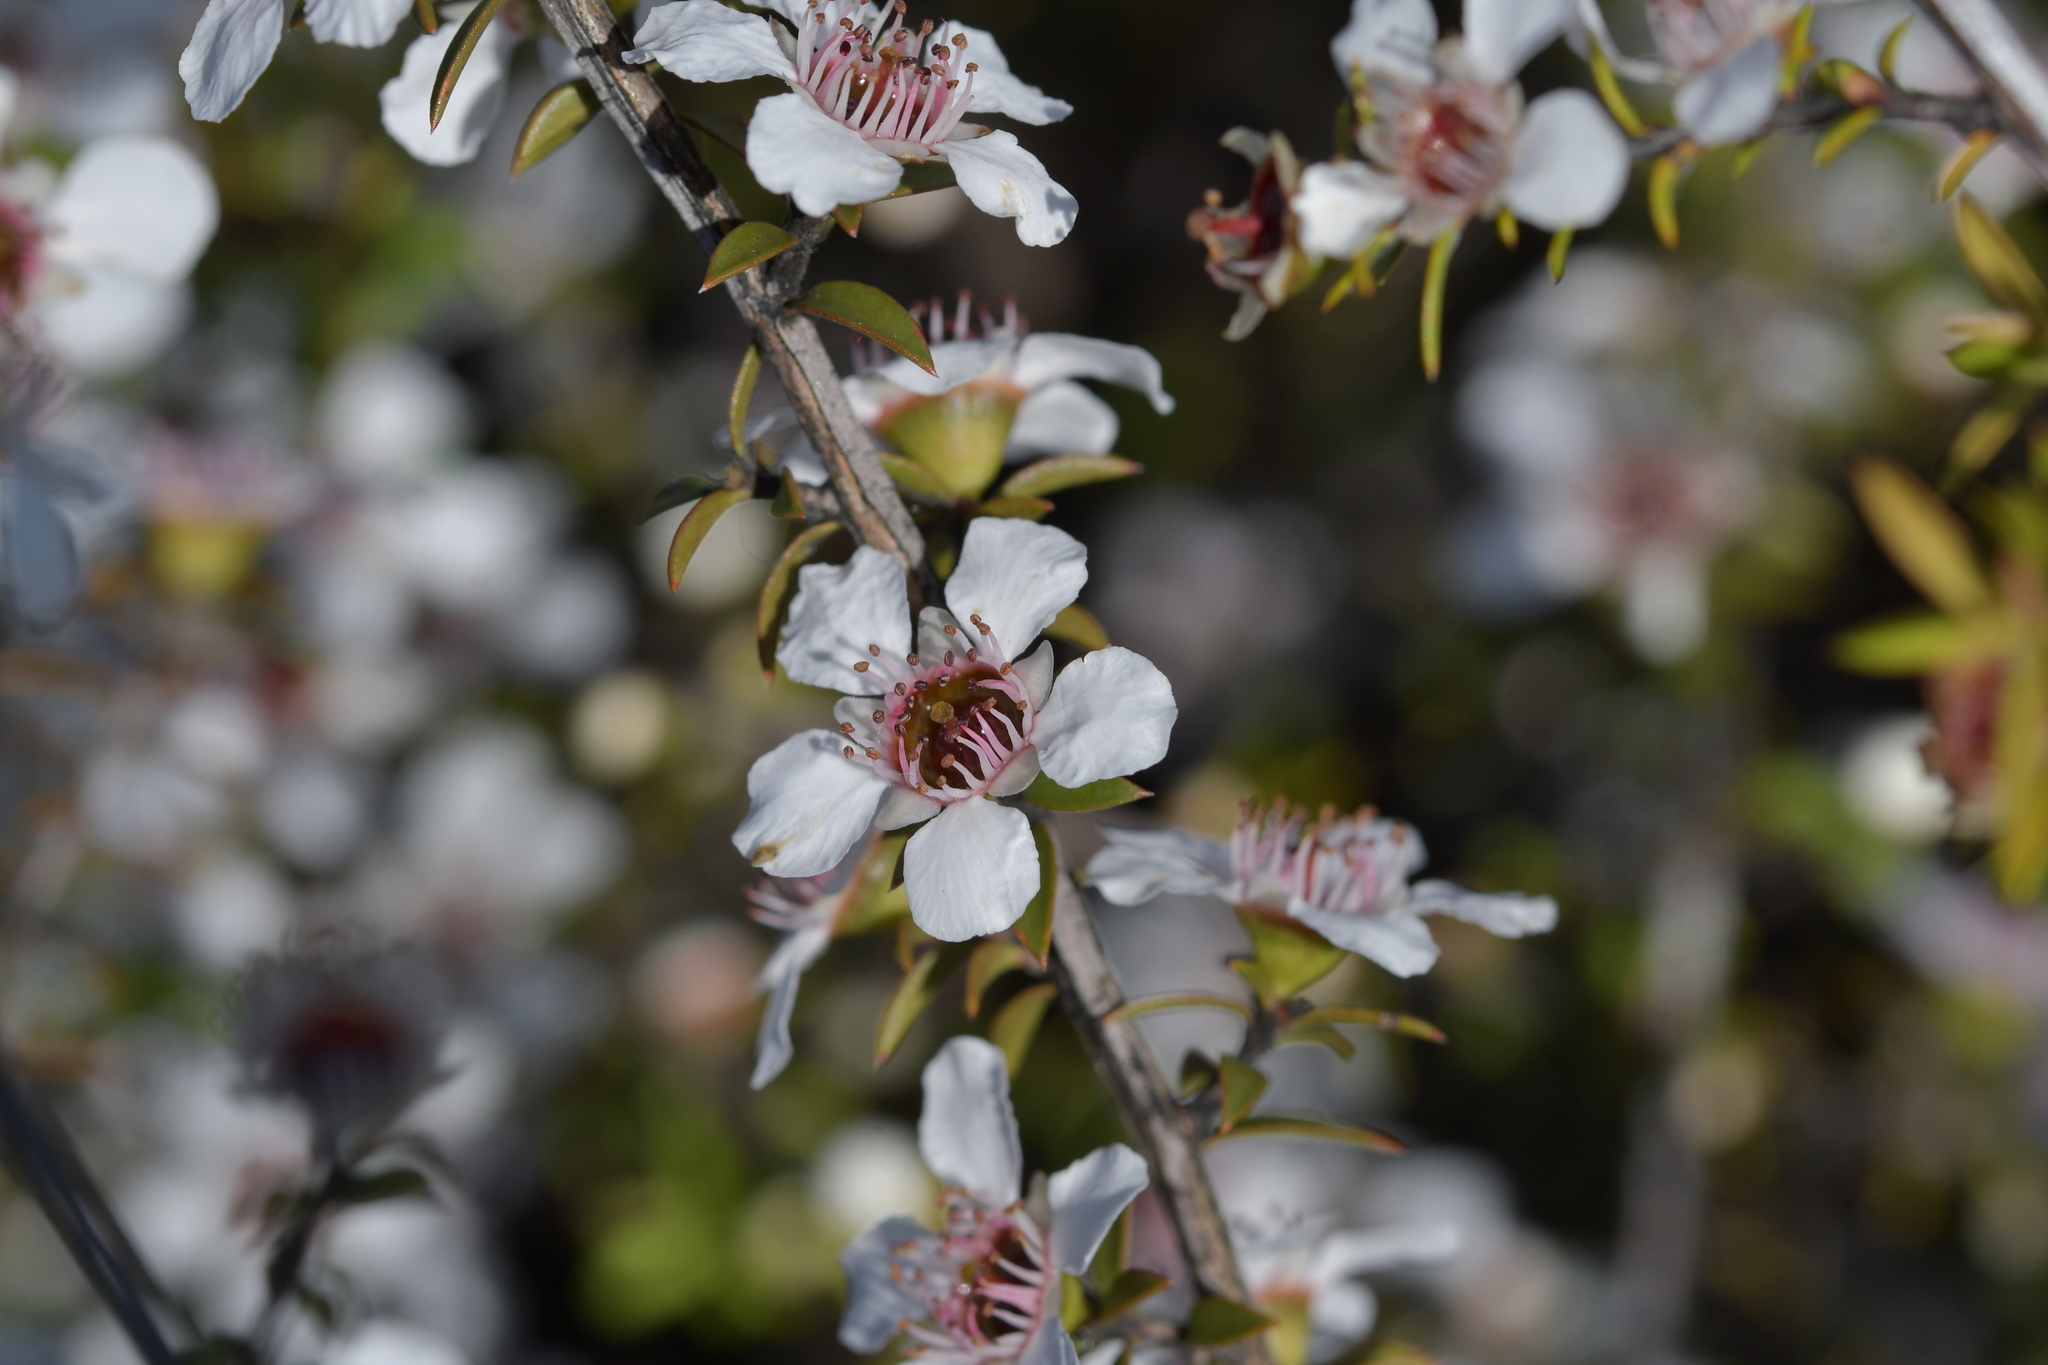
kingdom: Plantae
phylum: Tracheophyta
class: Magnoliopsida
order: Myrtales
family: Myrtaceae
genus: Leptospermum
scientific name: Leptospermum scoparium
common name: Broom tea-tree
